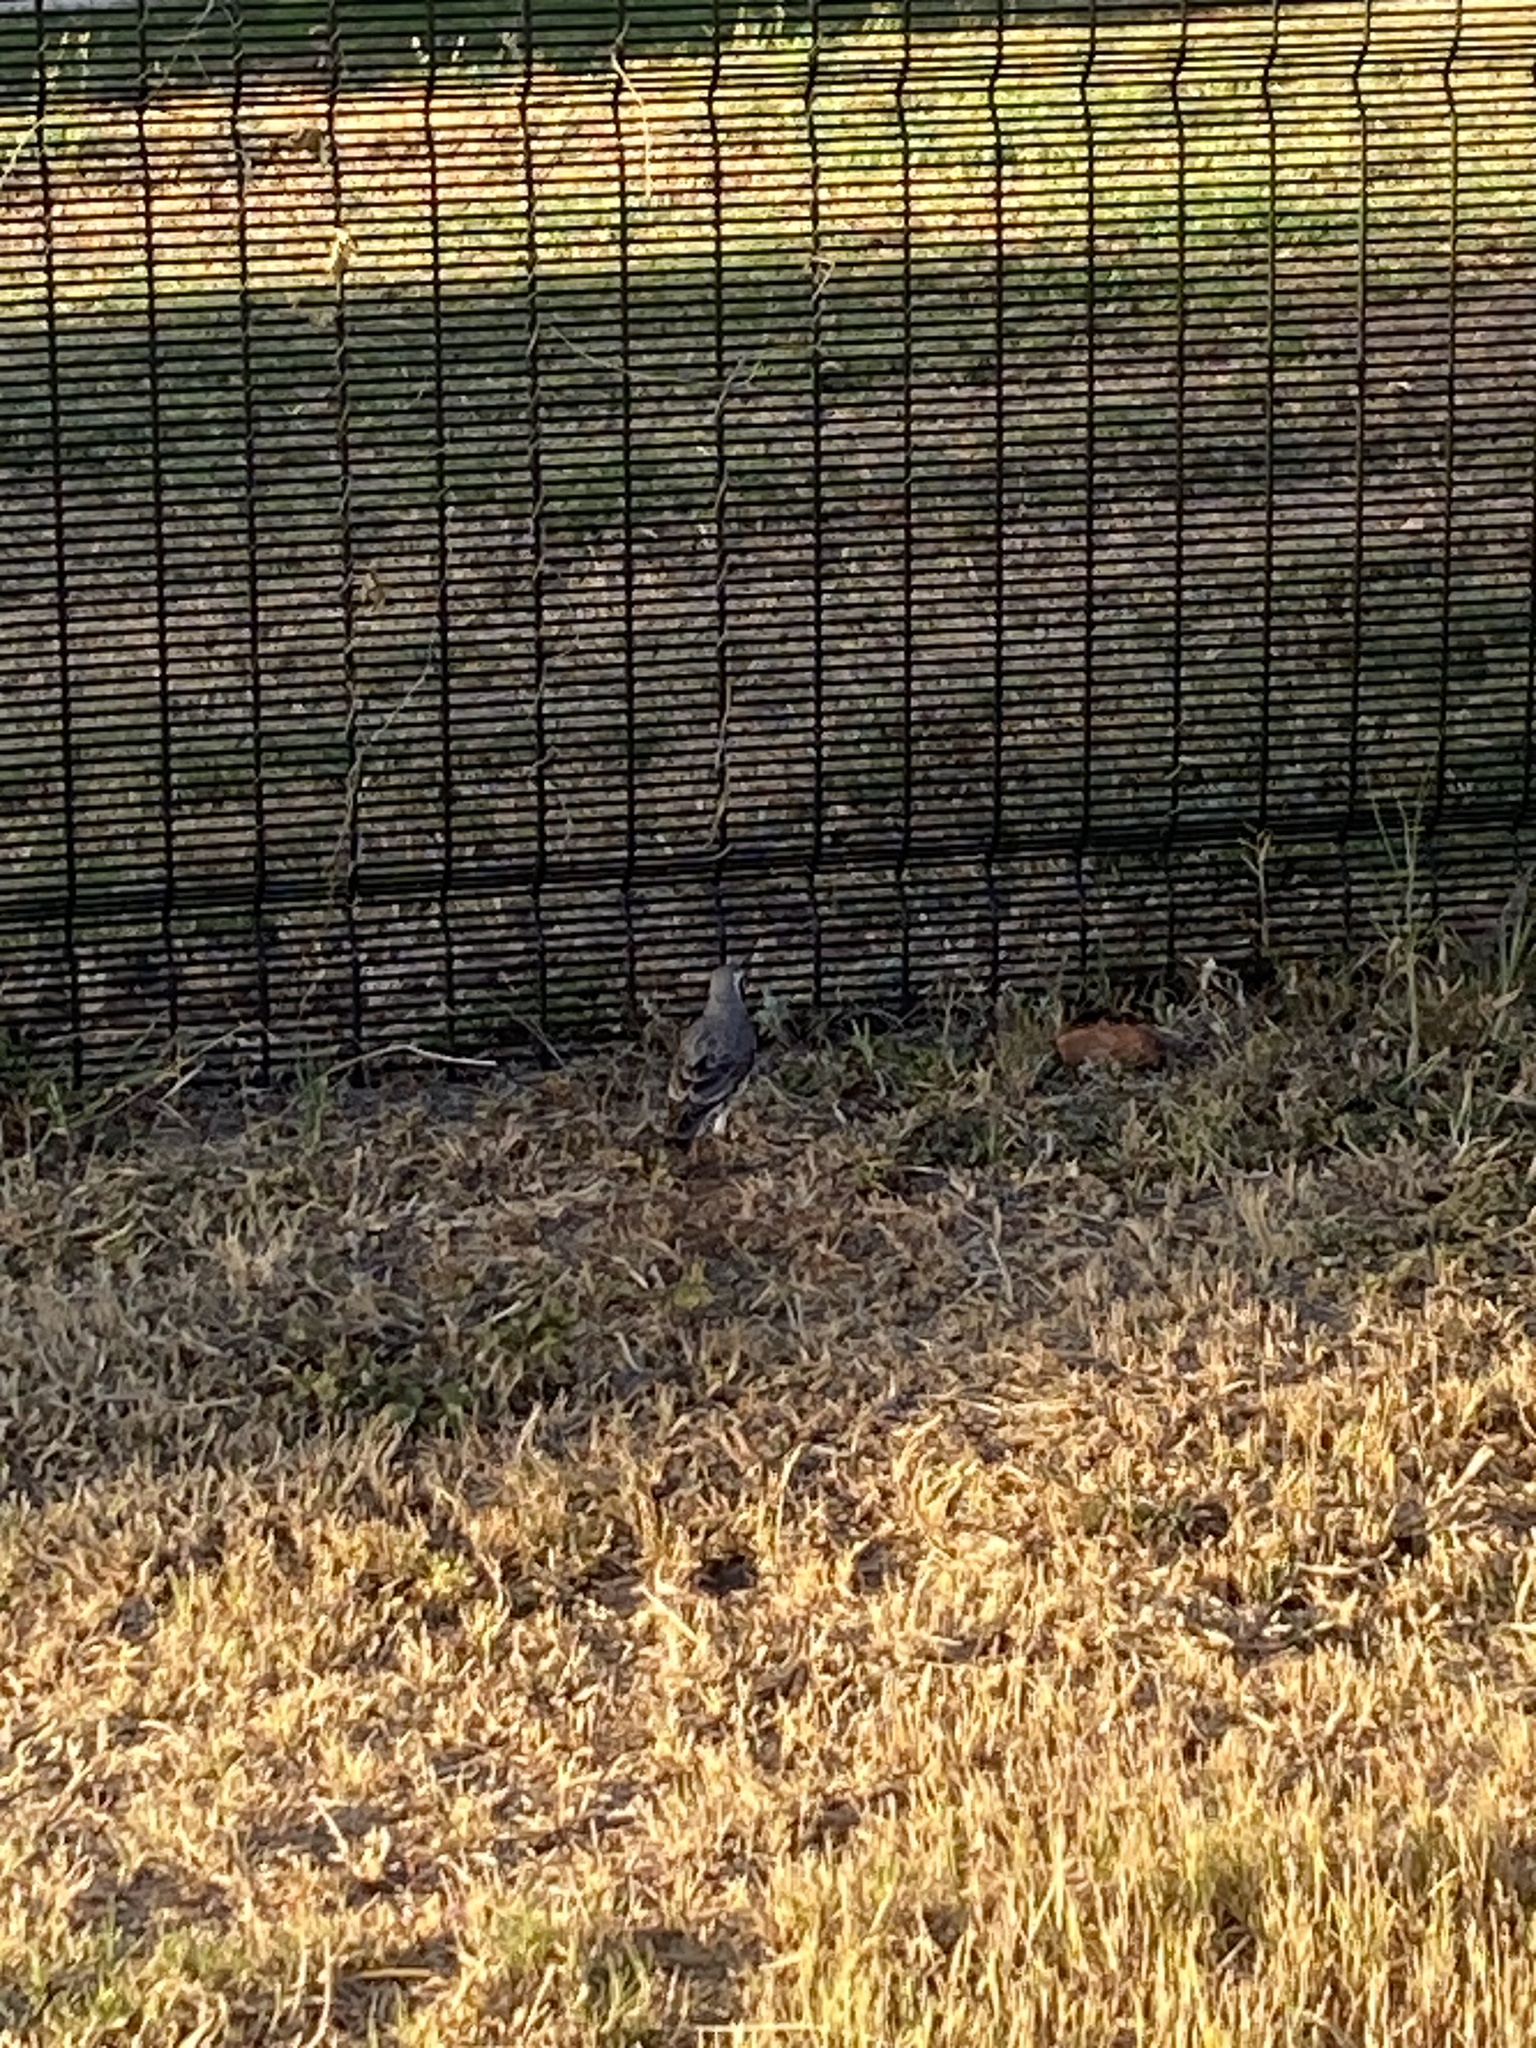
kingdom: Animalia
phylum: Chordata
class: Aves
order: Passeriformes
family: Turdidae
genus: Psophocichla
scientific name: Psophocichla litsitsirupa
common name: Groundscraper thrush
